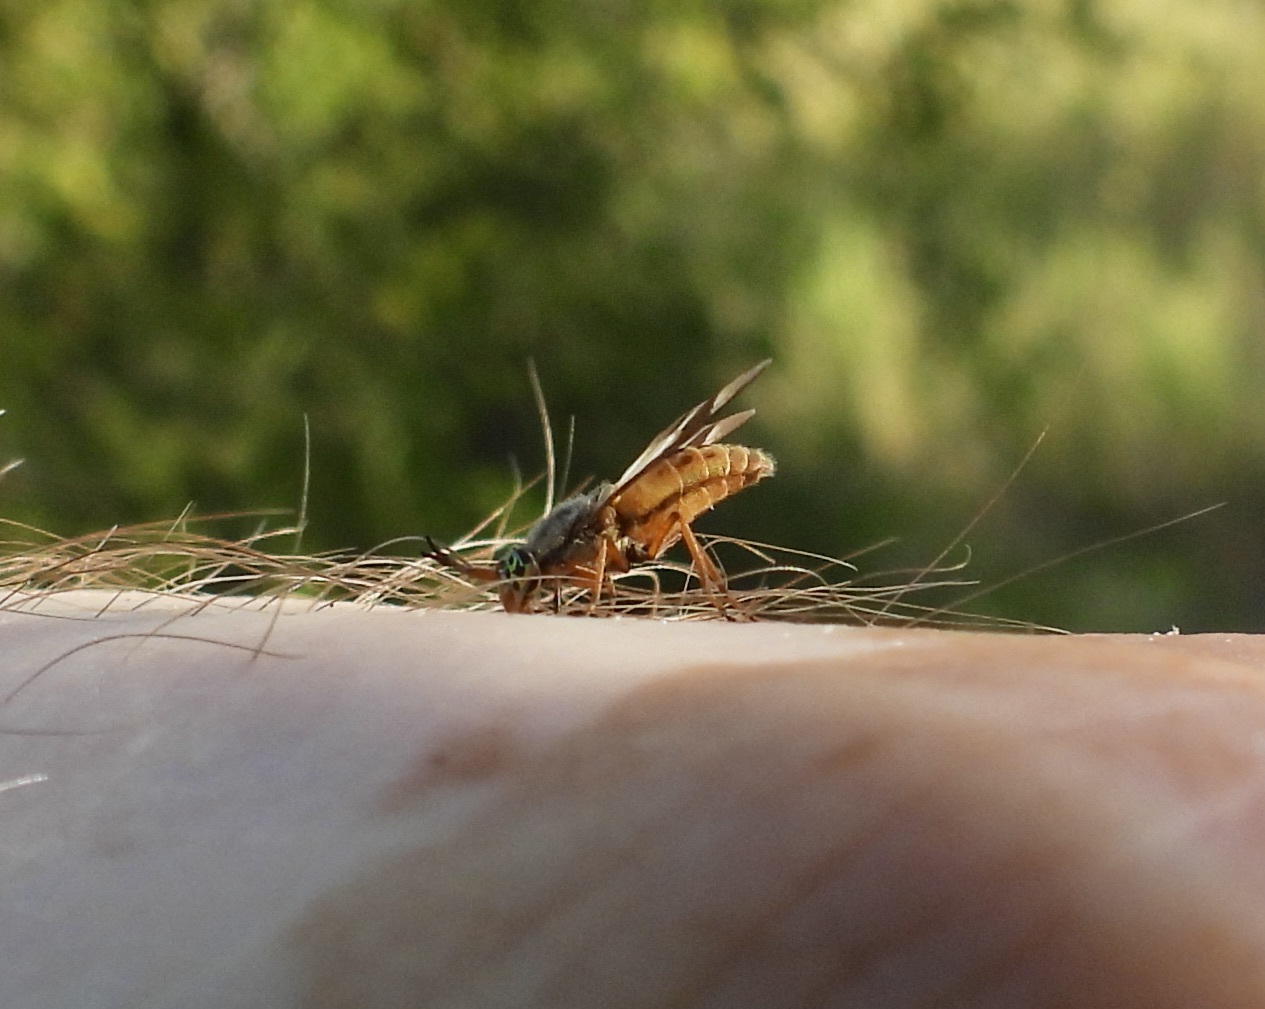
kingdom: Animalia
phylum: Arthropoda
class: Insecta
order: Diptera
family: Tabanidae
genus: Chrysops
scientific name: Chrysops dissimilis
